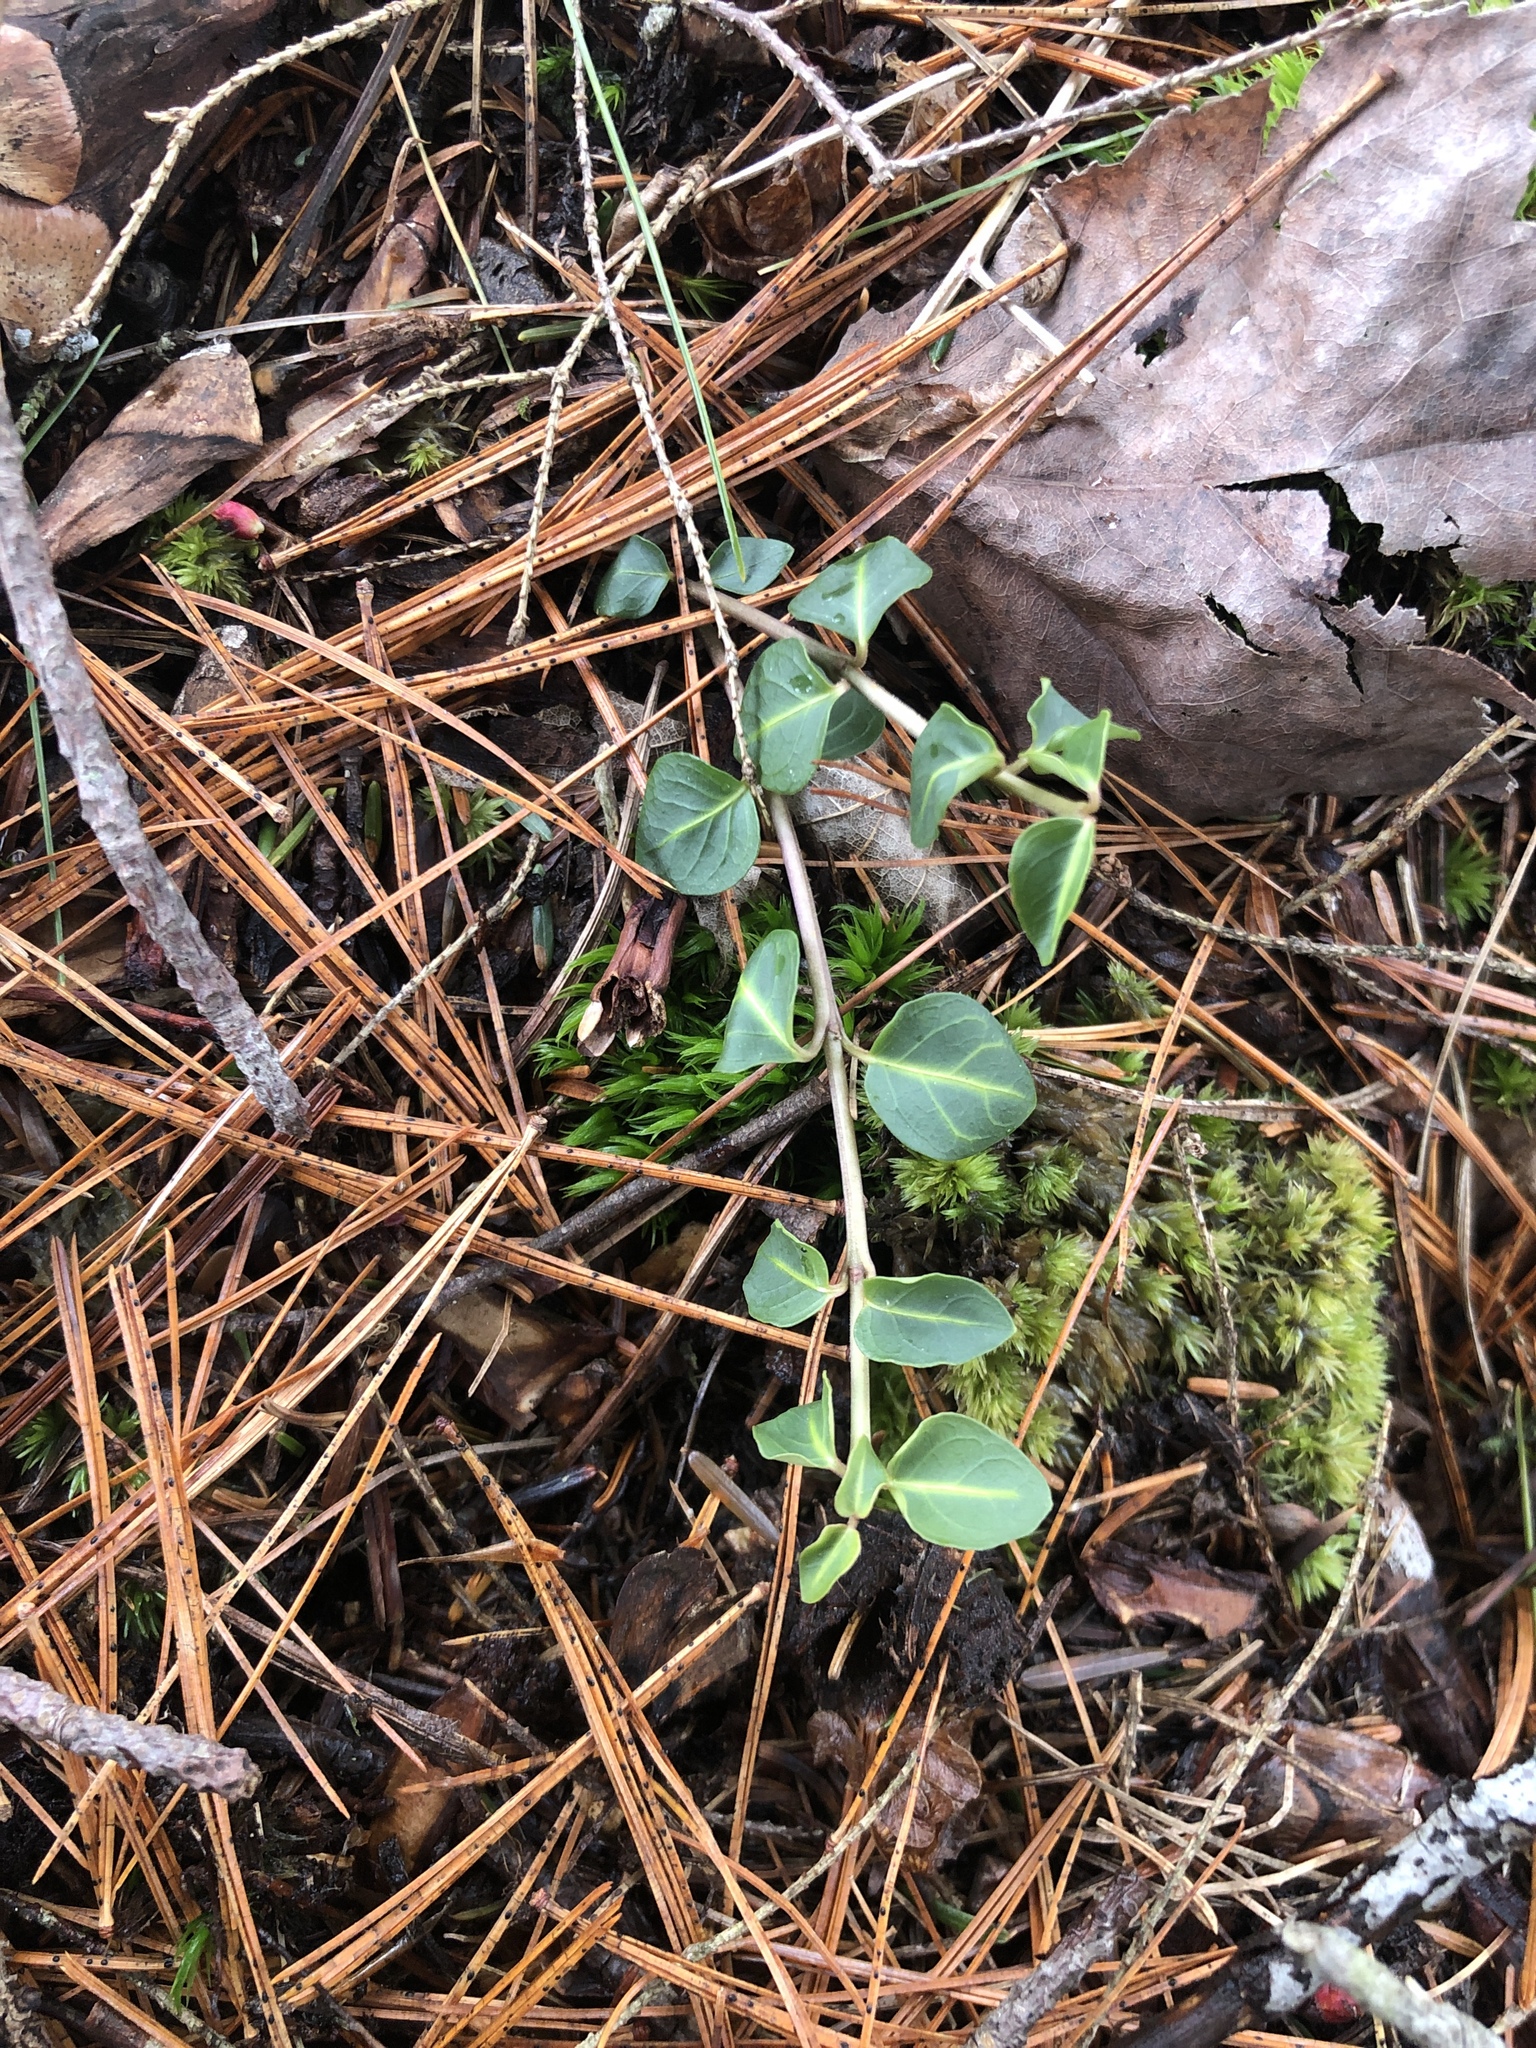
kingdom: Plantae
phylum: Tracheophyta
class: Magnoliopsida
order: Gentianales
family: Rubiaceae
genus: Mitchella
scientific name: Mitchella repens
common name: Partridge-berry
